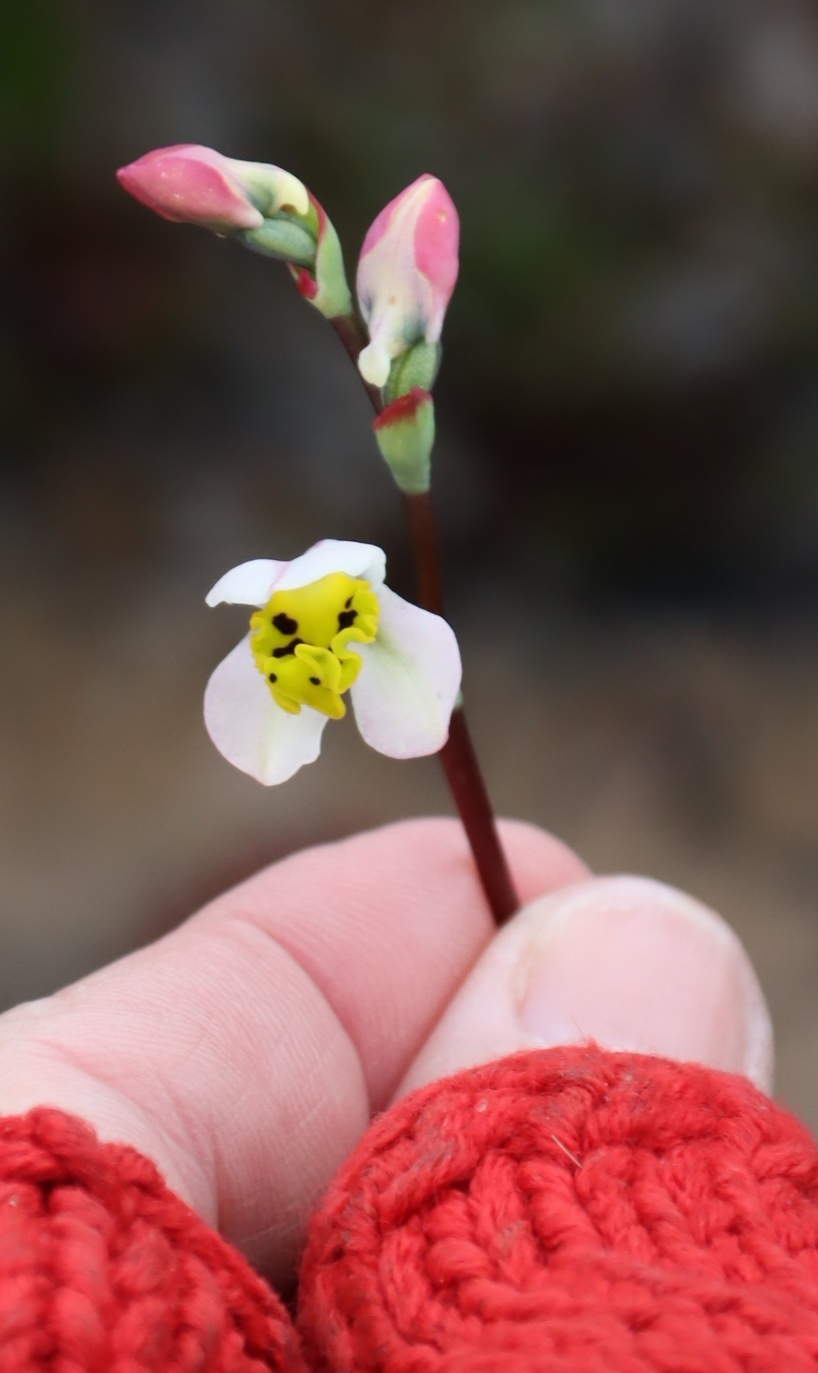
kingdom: Plantae
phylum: Tracheophyta
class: Liliopsida
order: Asparagales
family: Orchidaceae
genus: Disa
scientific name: Disa flexuosa
